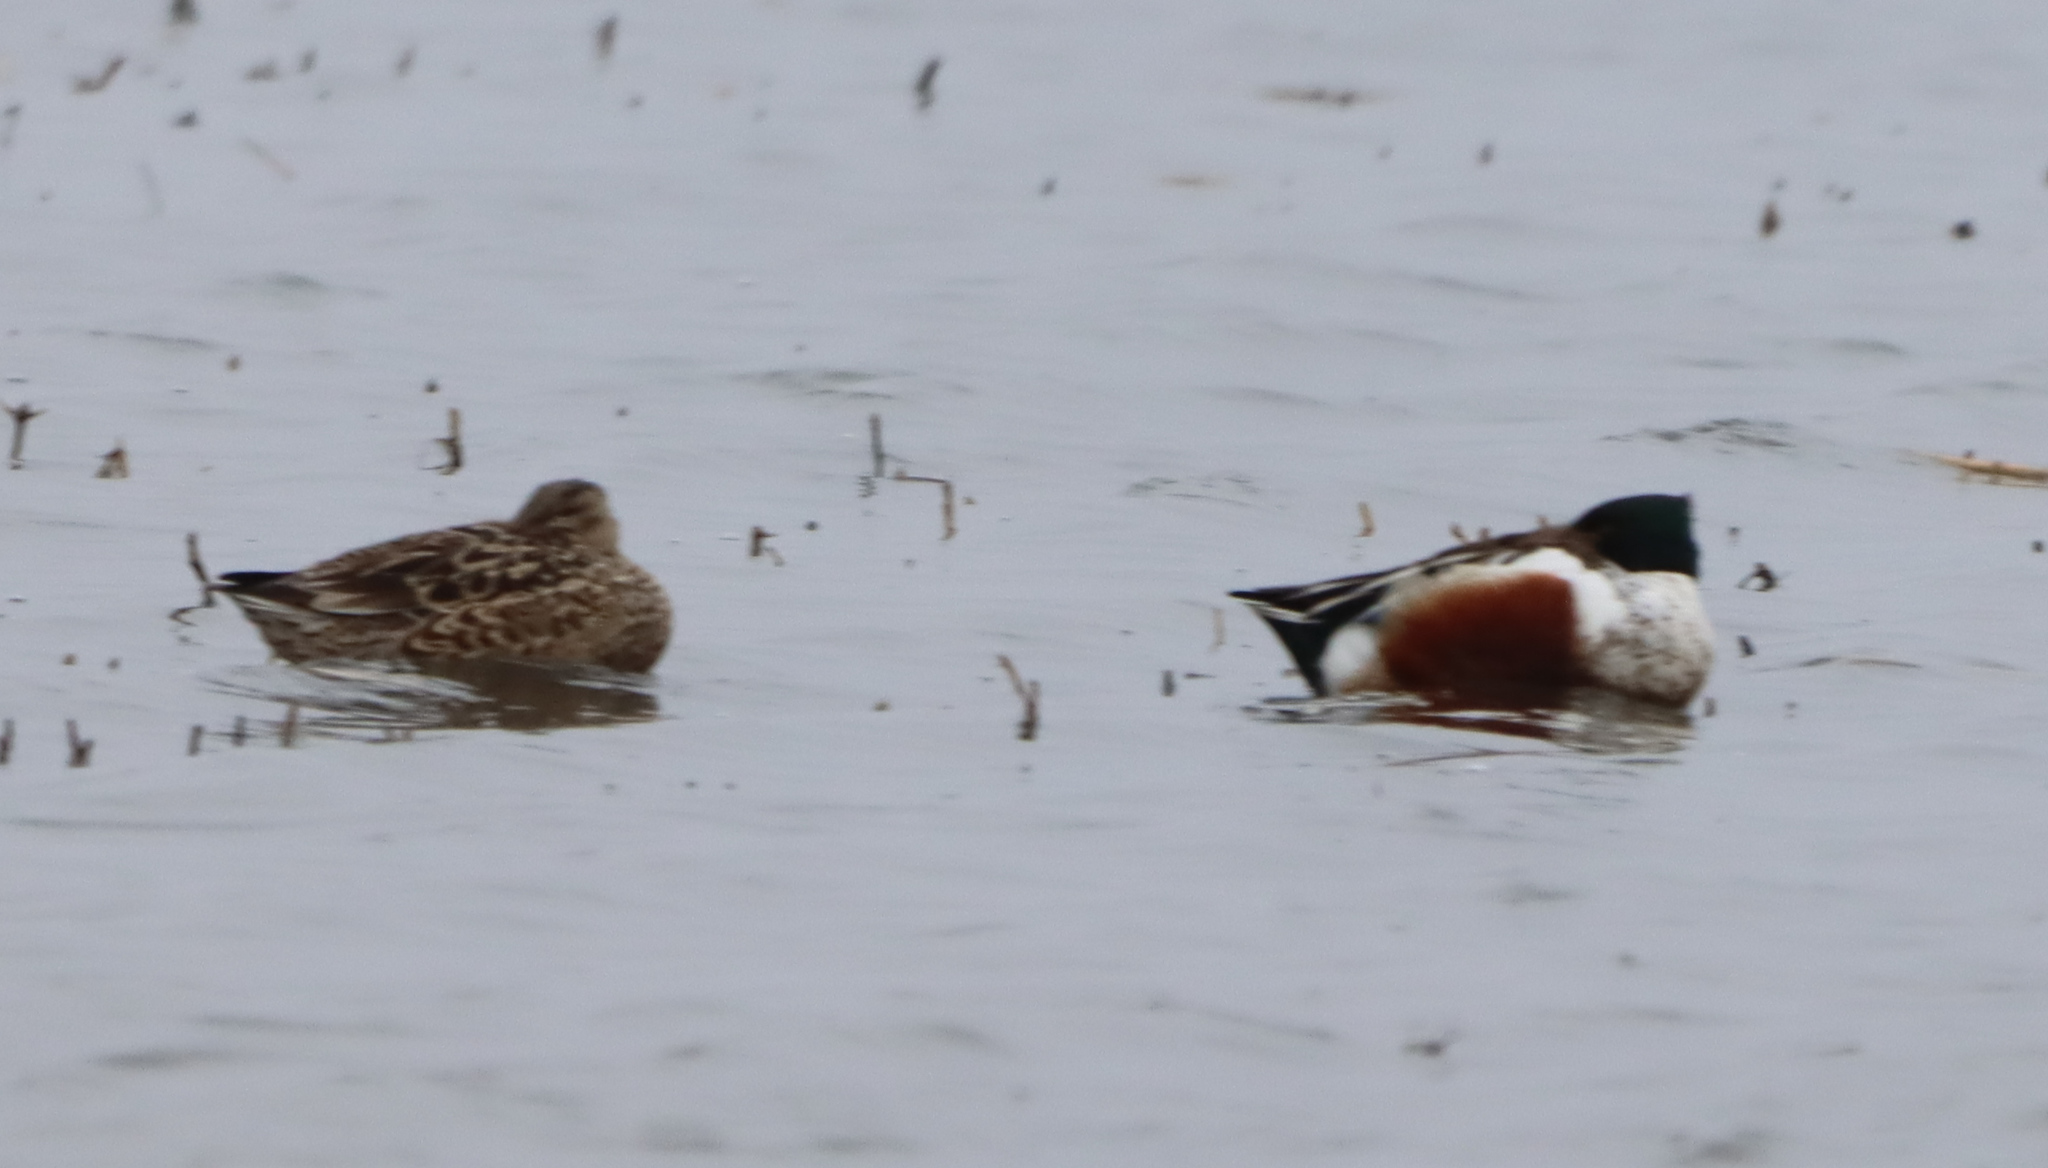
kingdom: Animalia
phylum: Chordata
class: Aves
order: Anseriformes
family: Anatidae
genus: Spatula
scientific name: Spatula clypeata
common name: Northern shoveler
